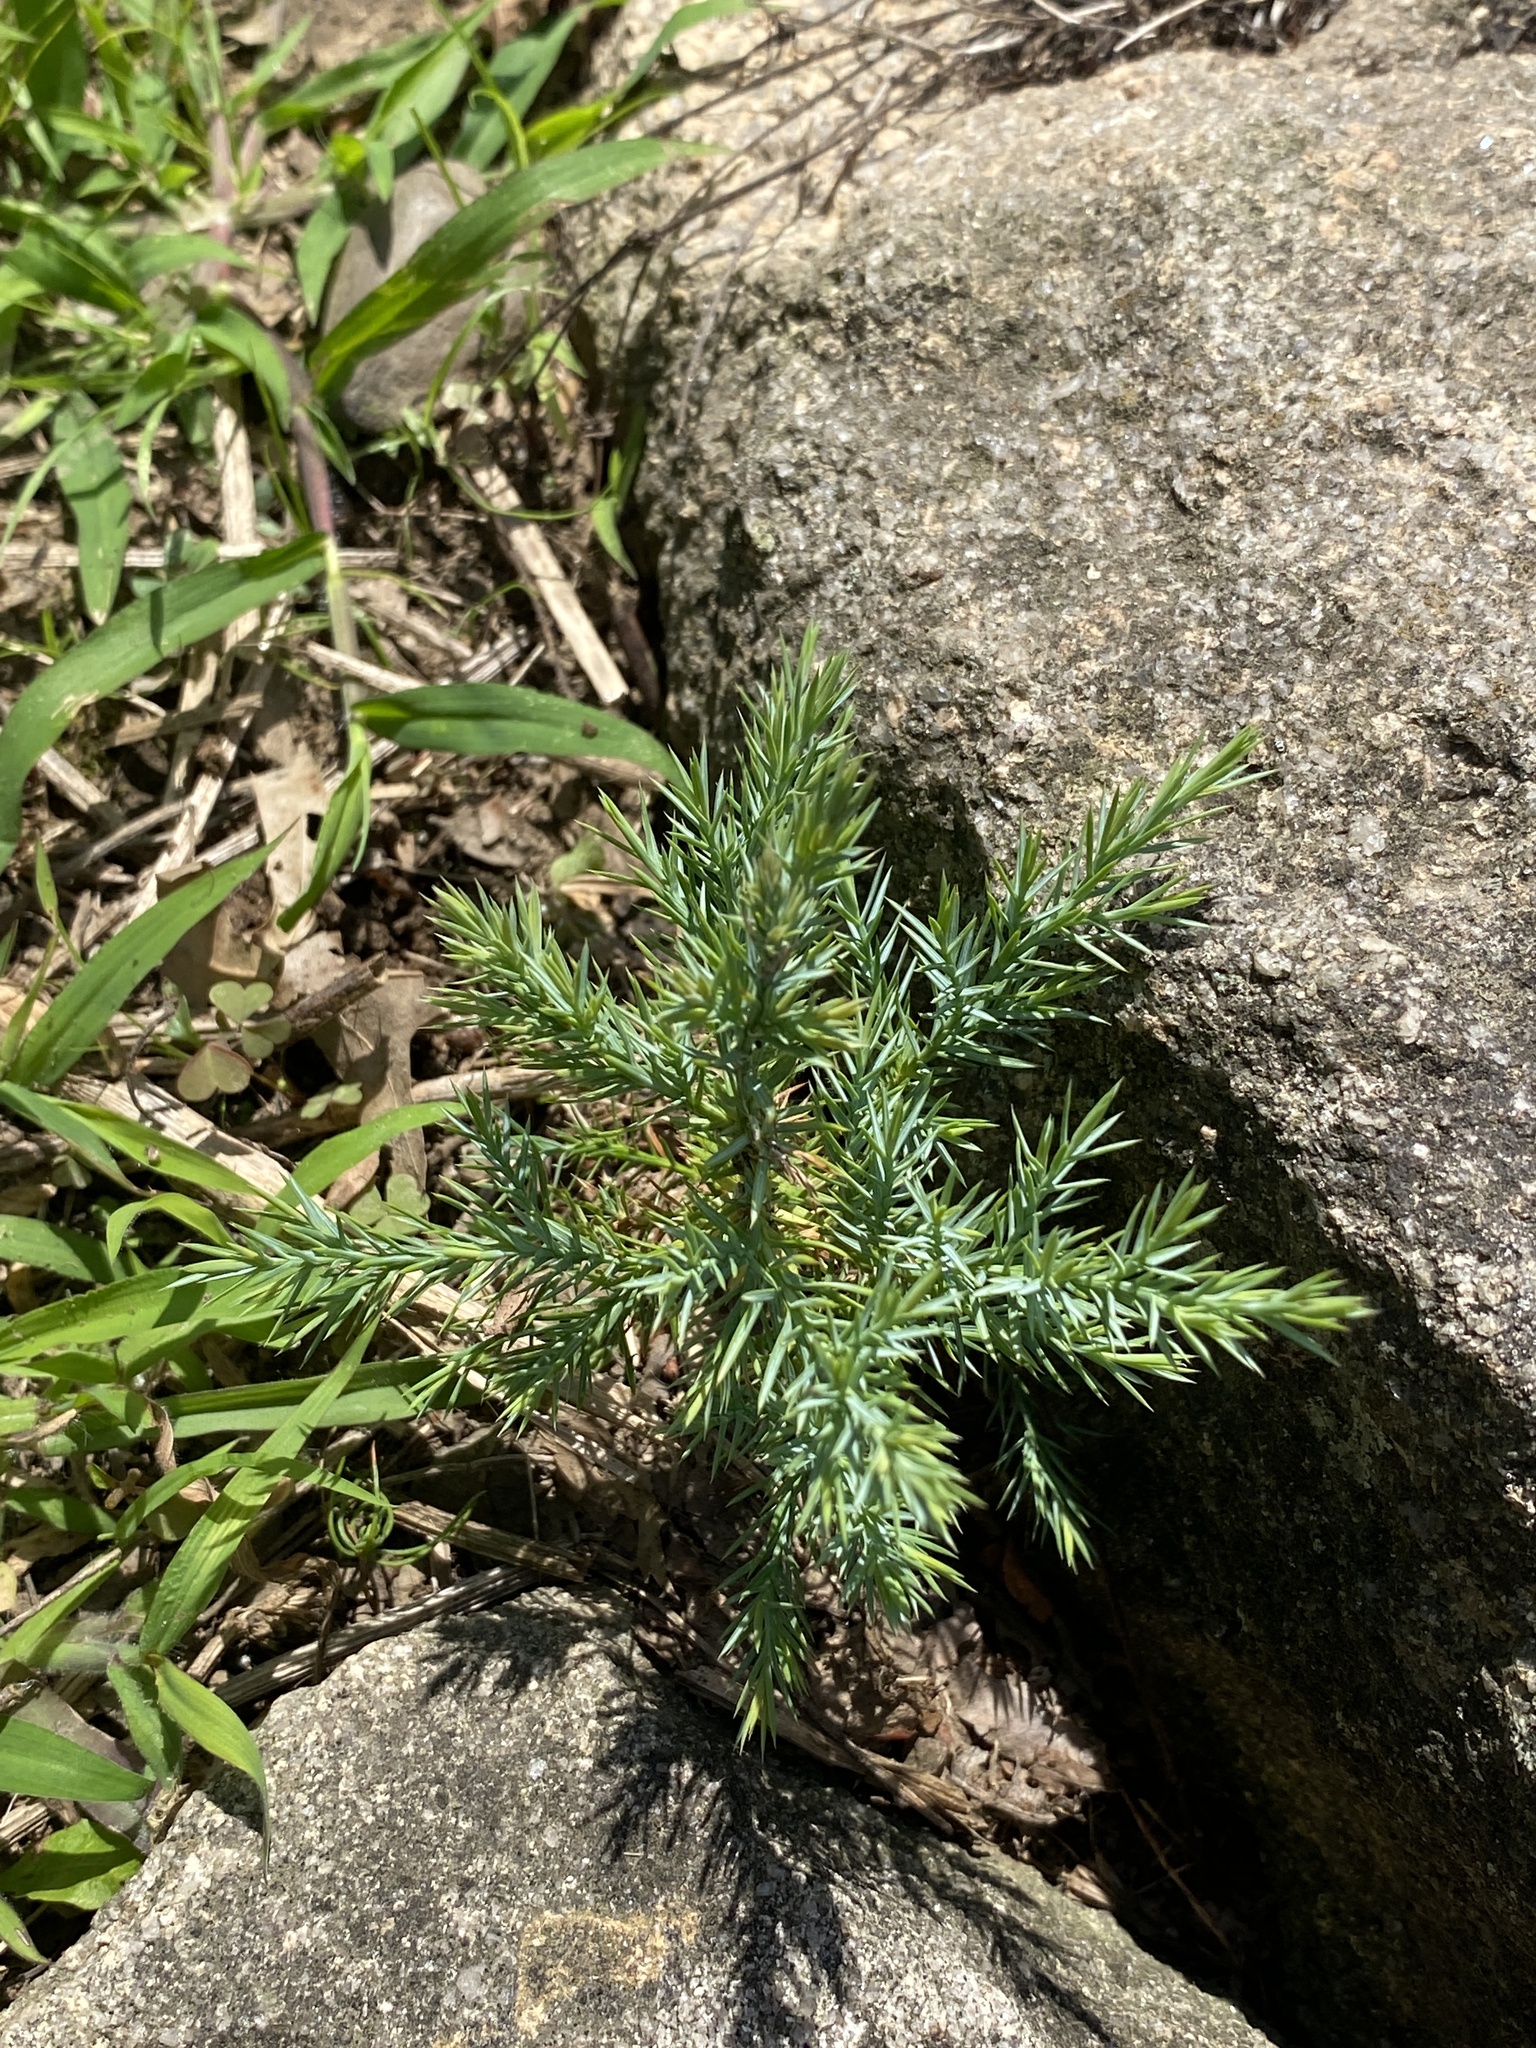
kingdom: Plantae
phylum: Tracheophyta
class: Pinopsida
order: Pinales
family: Cupressaceae
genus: Juniperus
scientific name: Juniperus virginiana
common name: Red juniper
